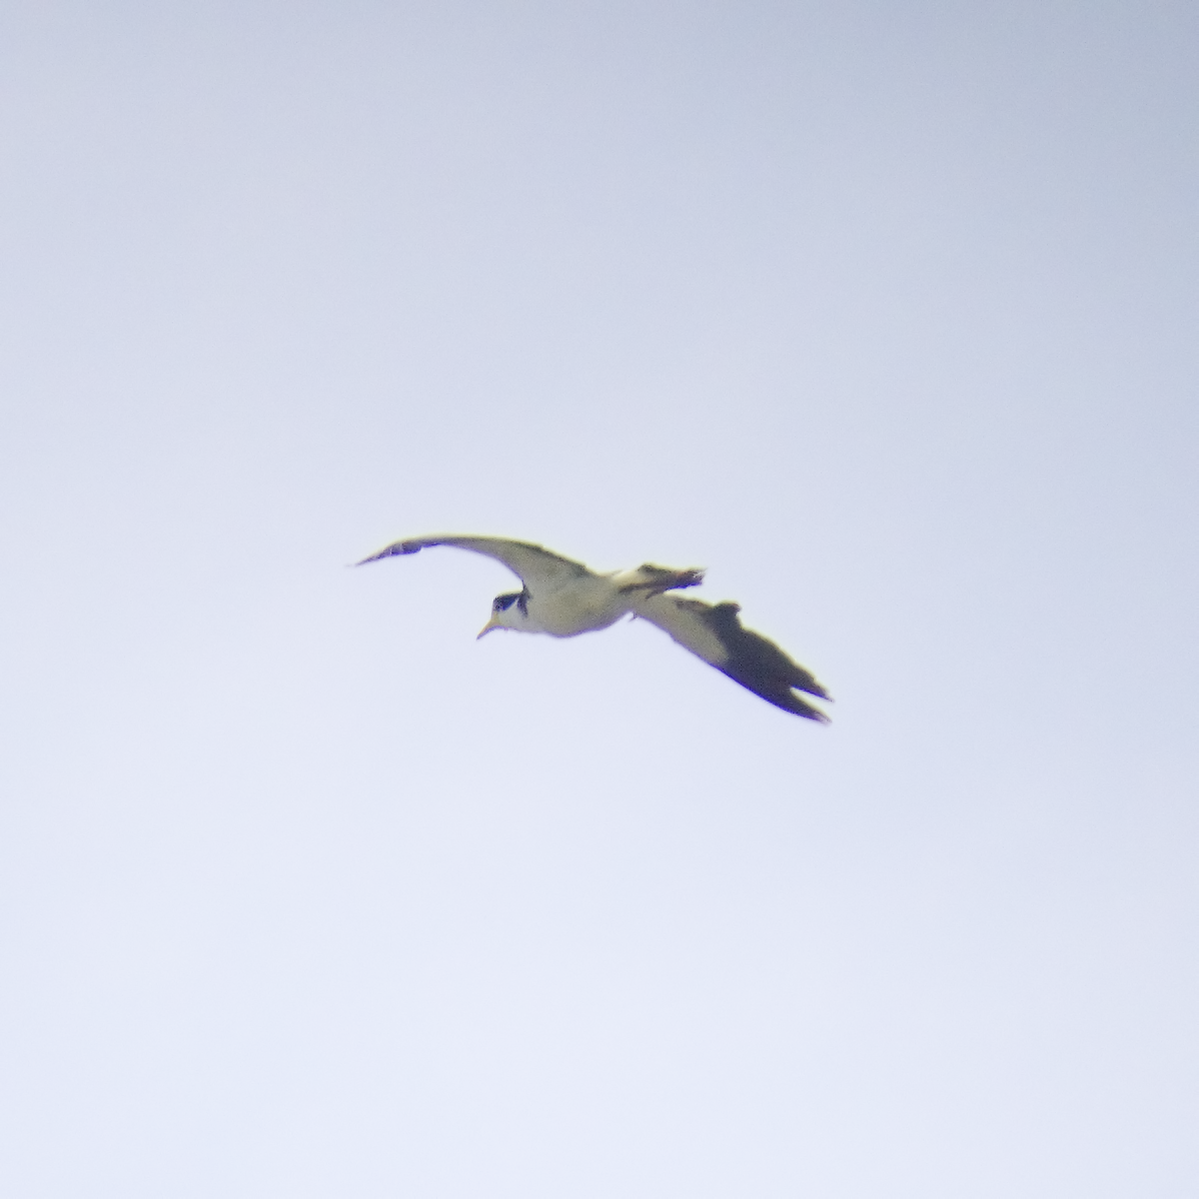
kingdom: Animalia
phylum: Chordata
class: Aves
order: Charadriiformes
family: Charadriidae
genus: Vanellus
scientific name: Vanellus miles
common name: Masked lapwing
